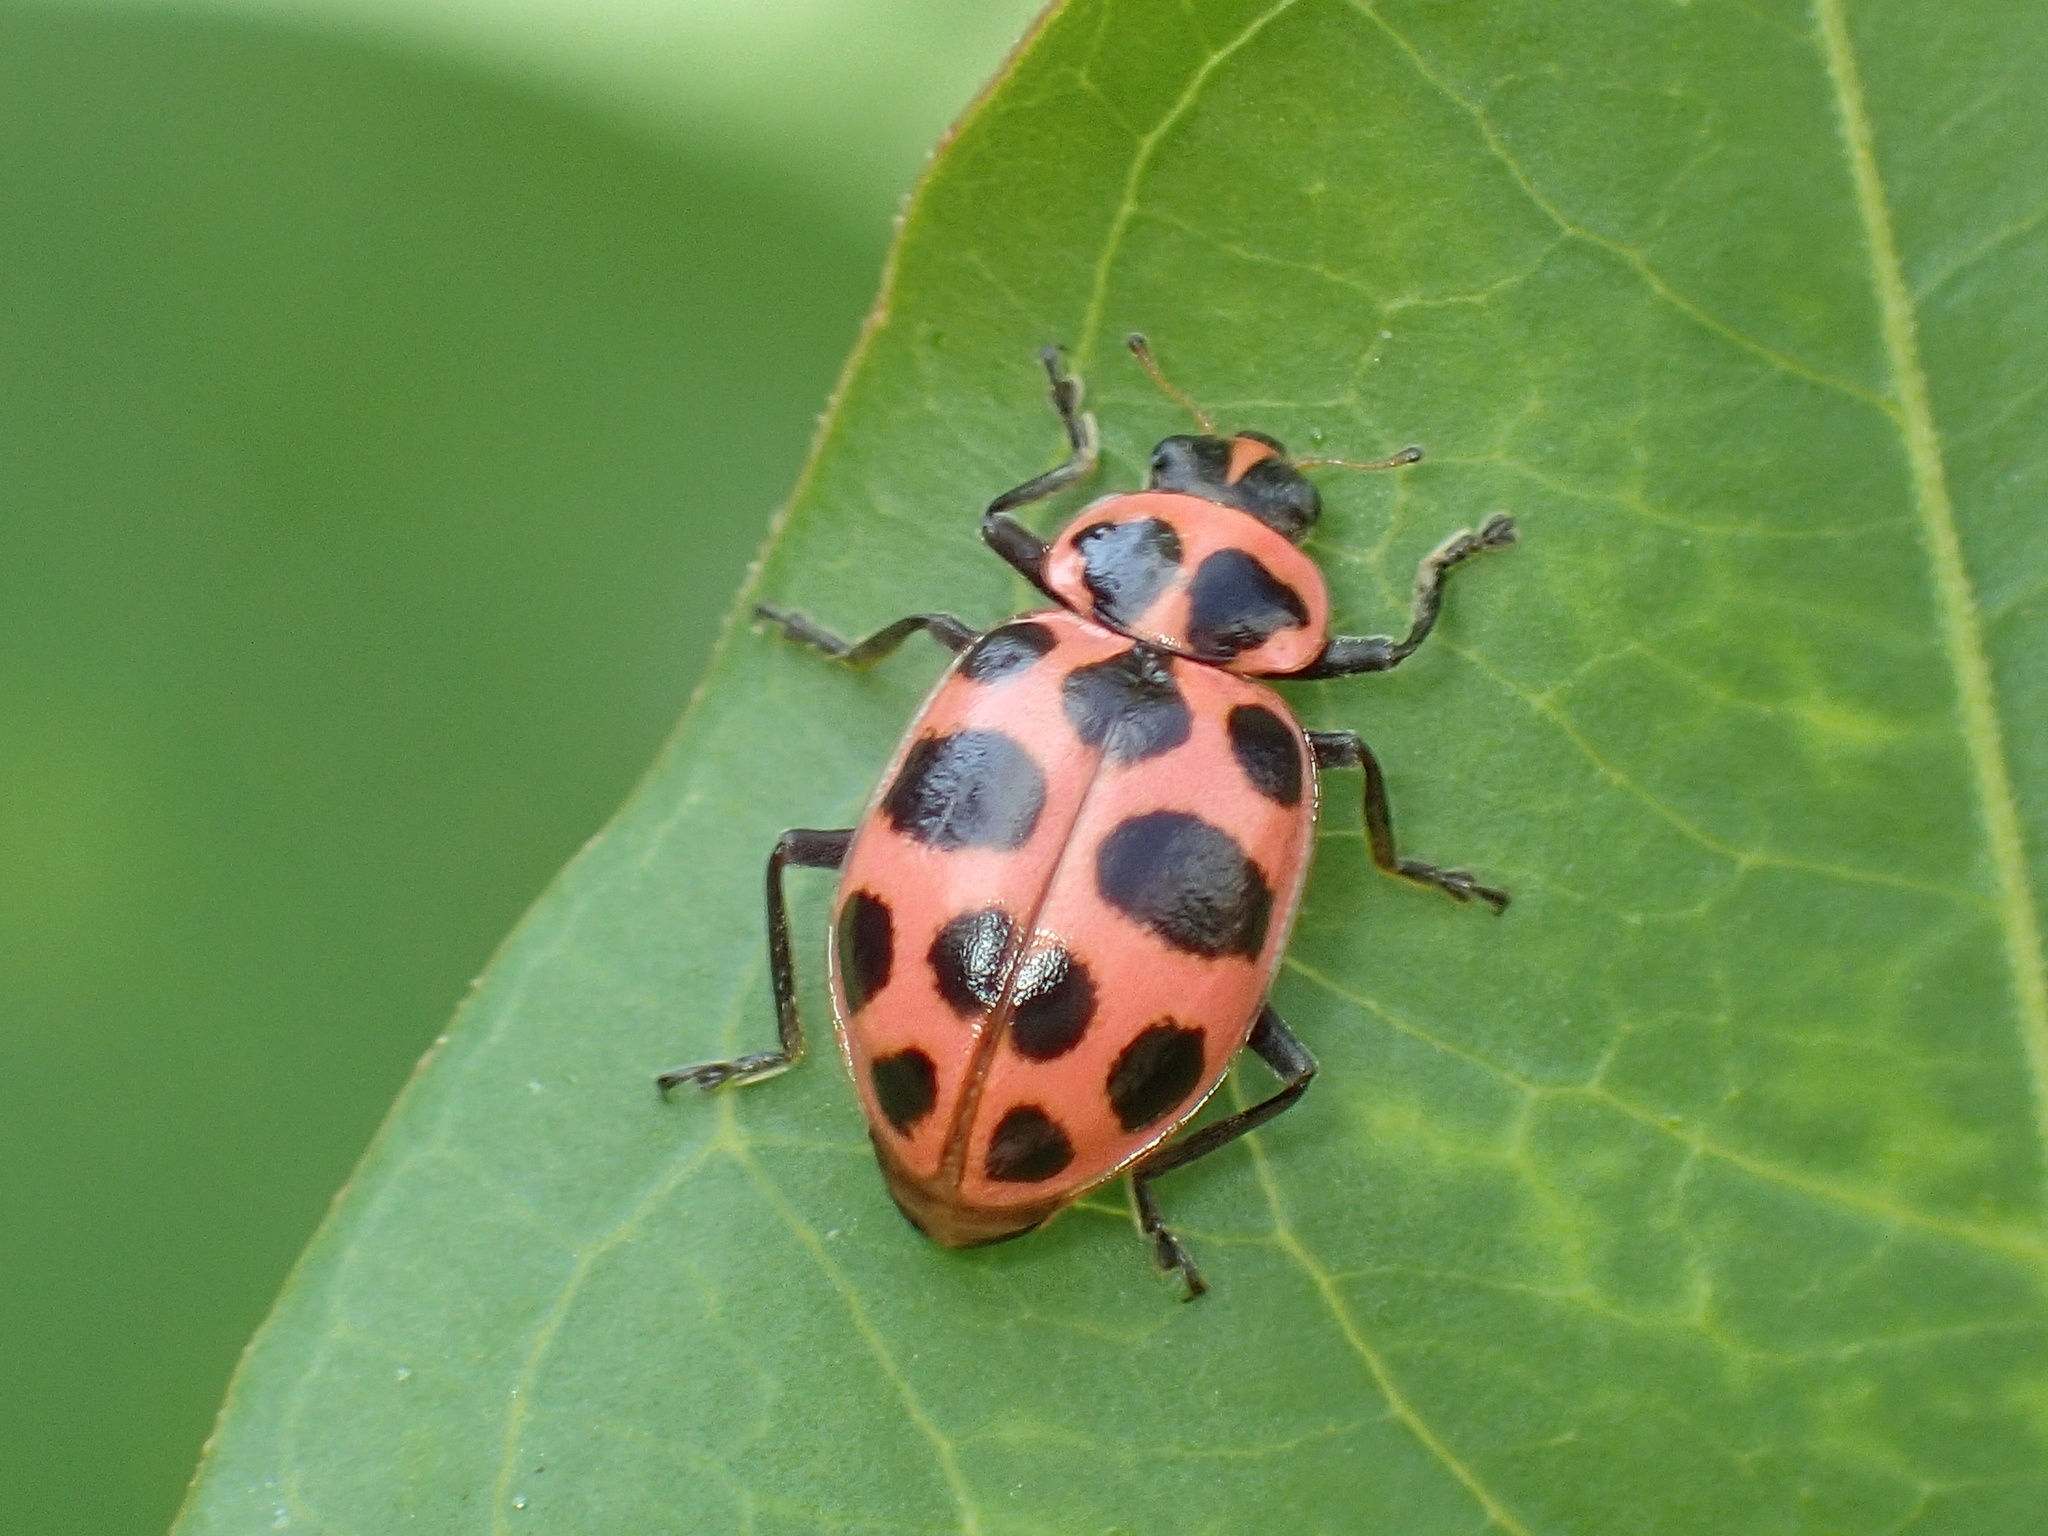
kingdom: Animalia
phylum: Arthropoda
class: Insecta
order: Coleoptera
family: Coccinellidae
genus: Coleomegilla
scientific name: Coleomegilla maculata
